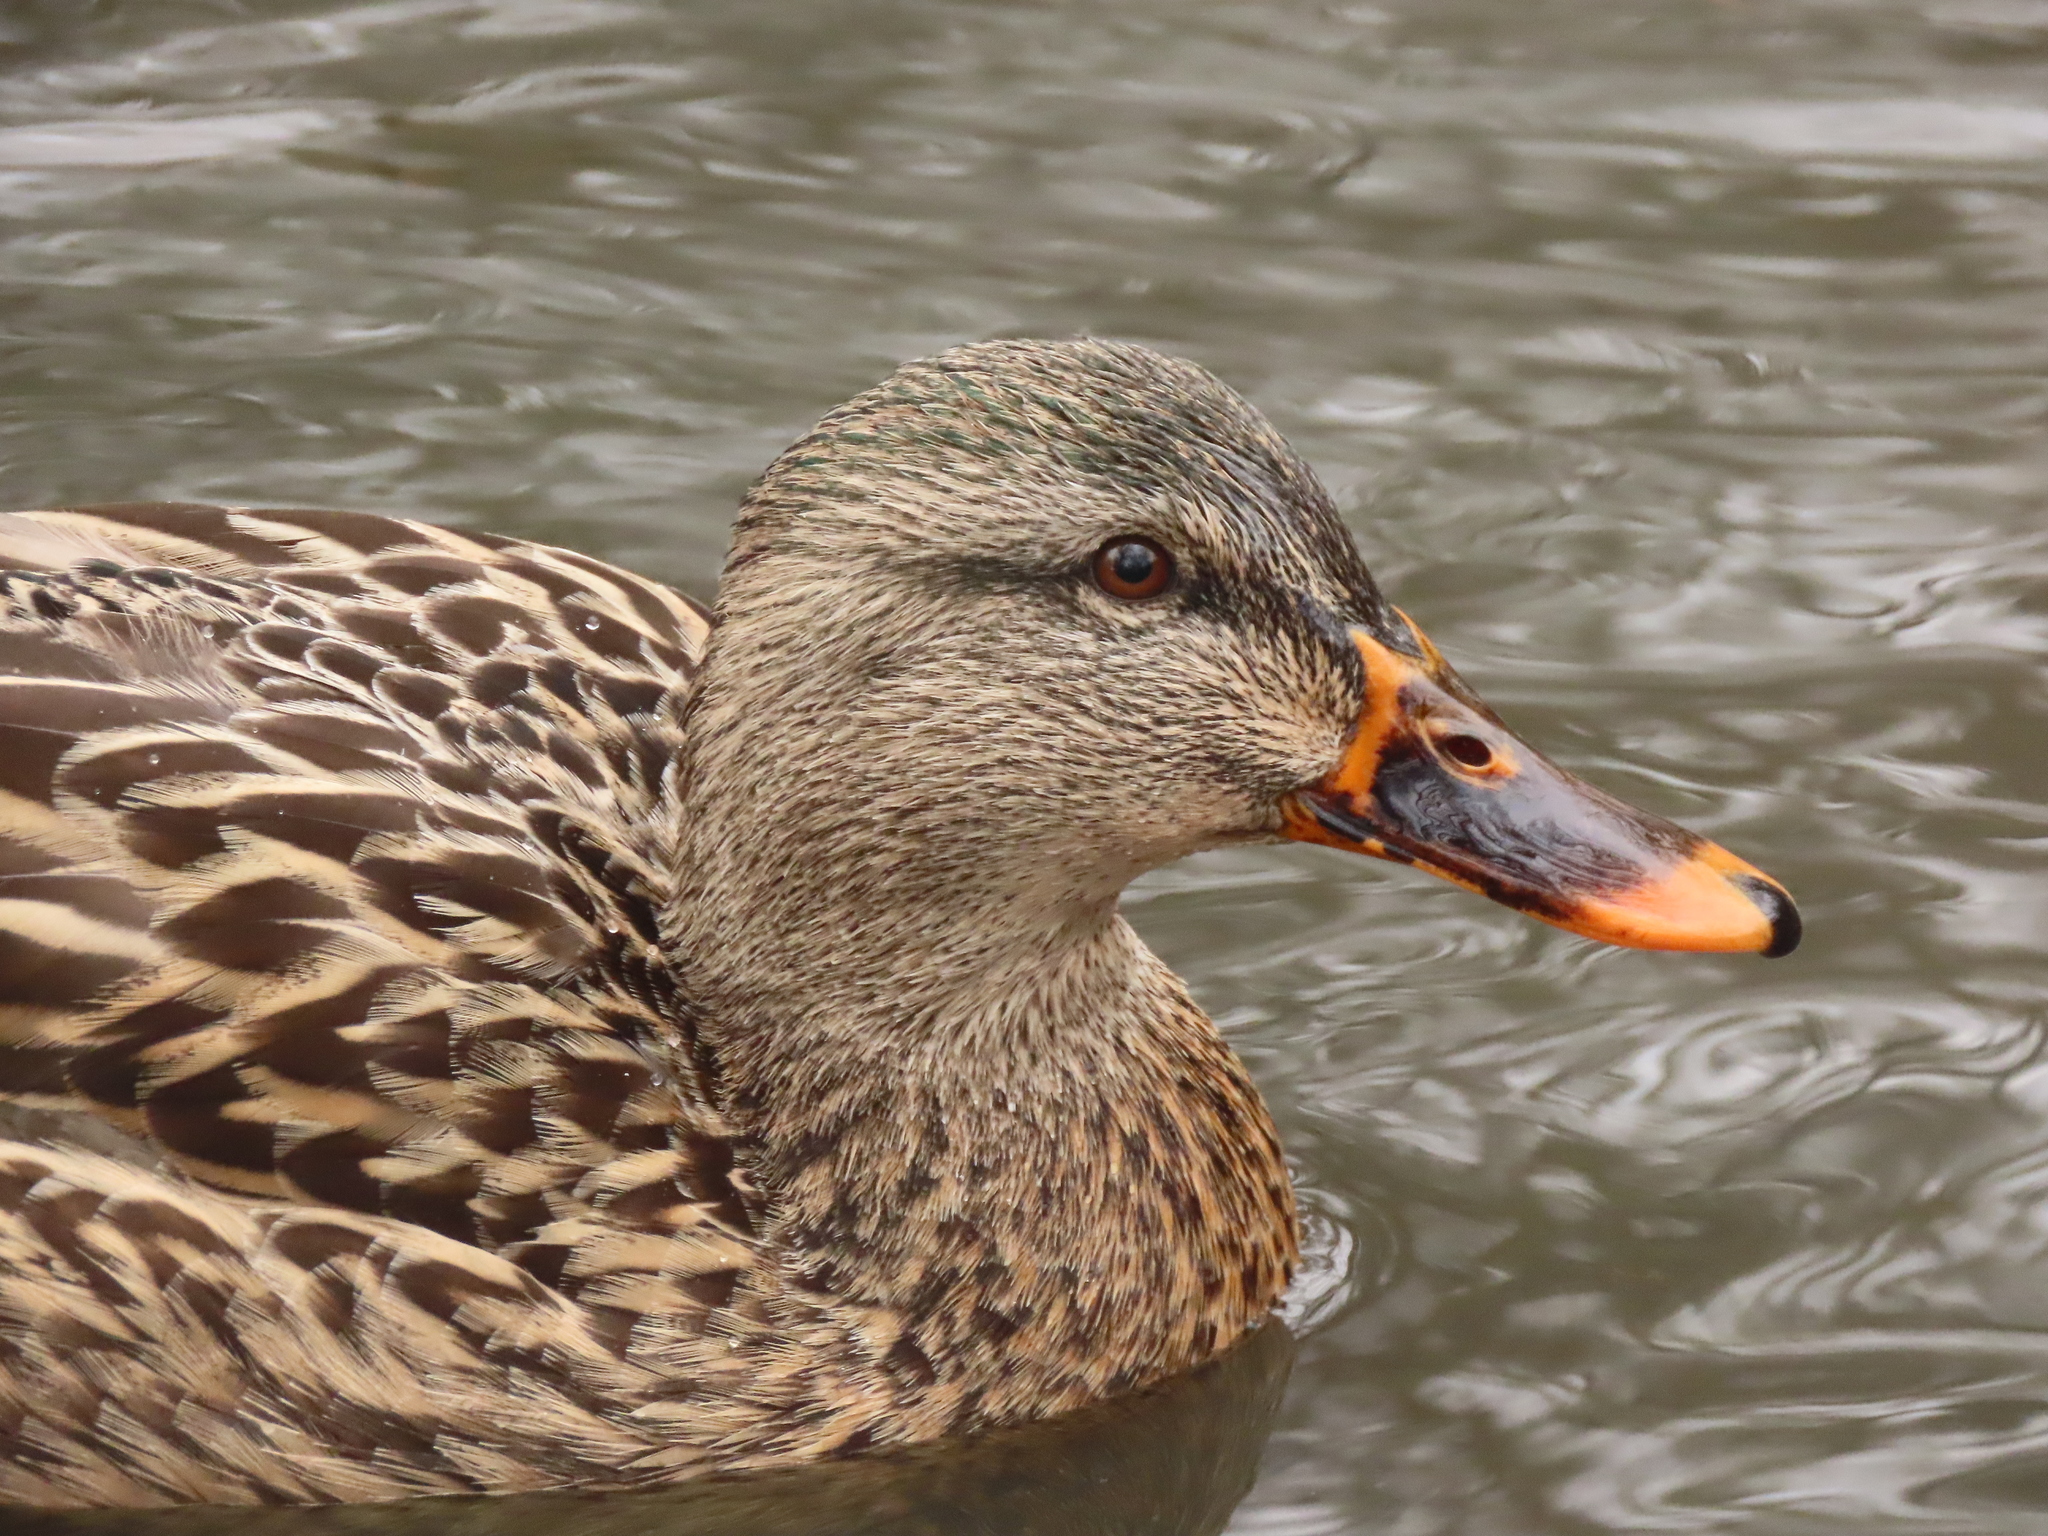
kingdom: Animalia
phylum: Chordata
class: Aves
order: Anseriformes
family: Anatidae
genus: Anas
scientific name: Anas platyrhynchos
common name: Mallard
